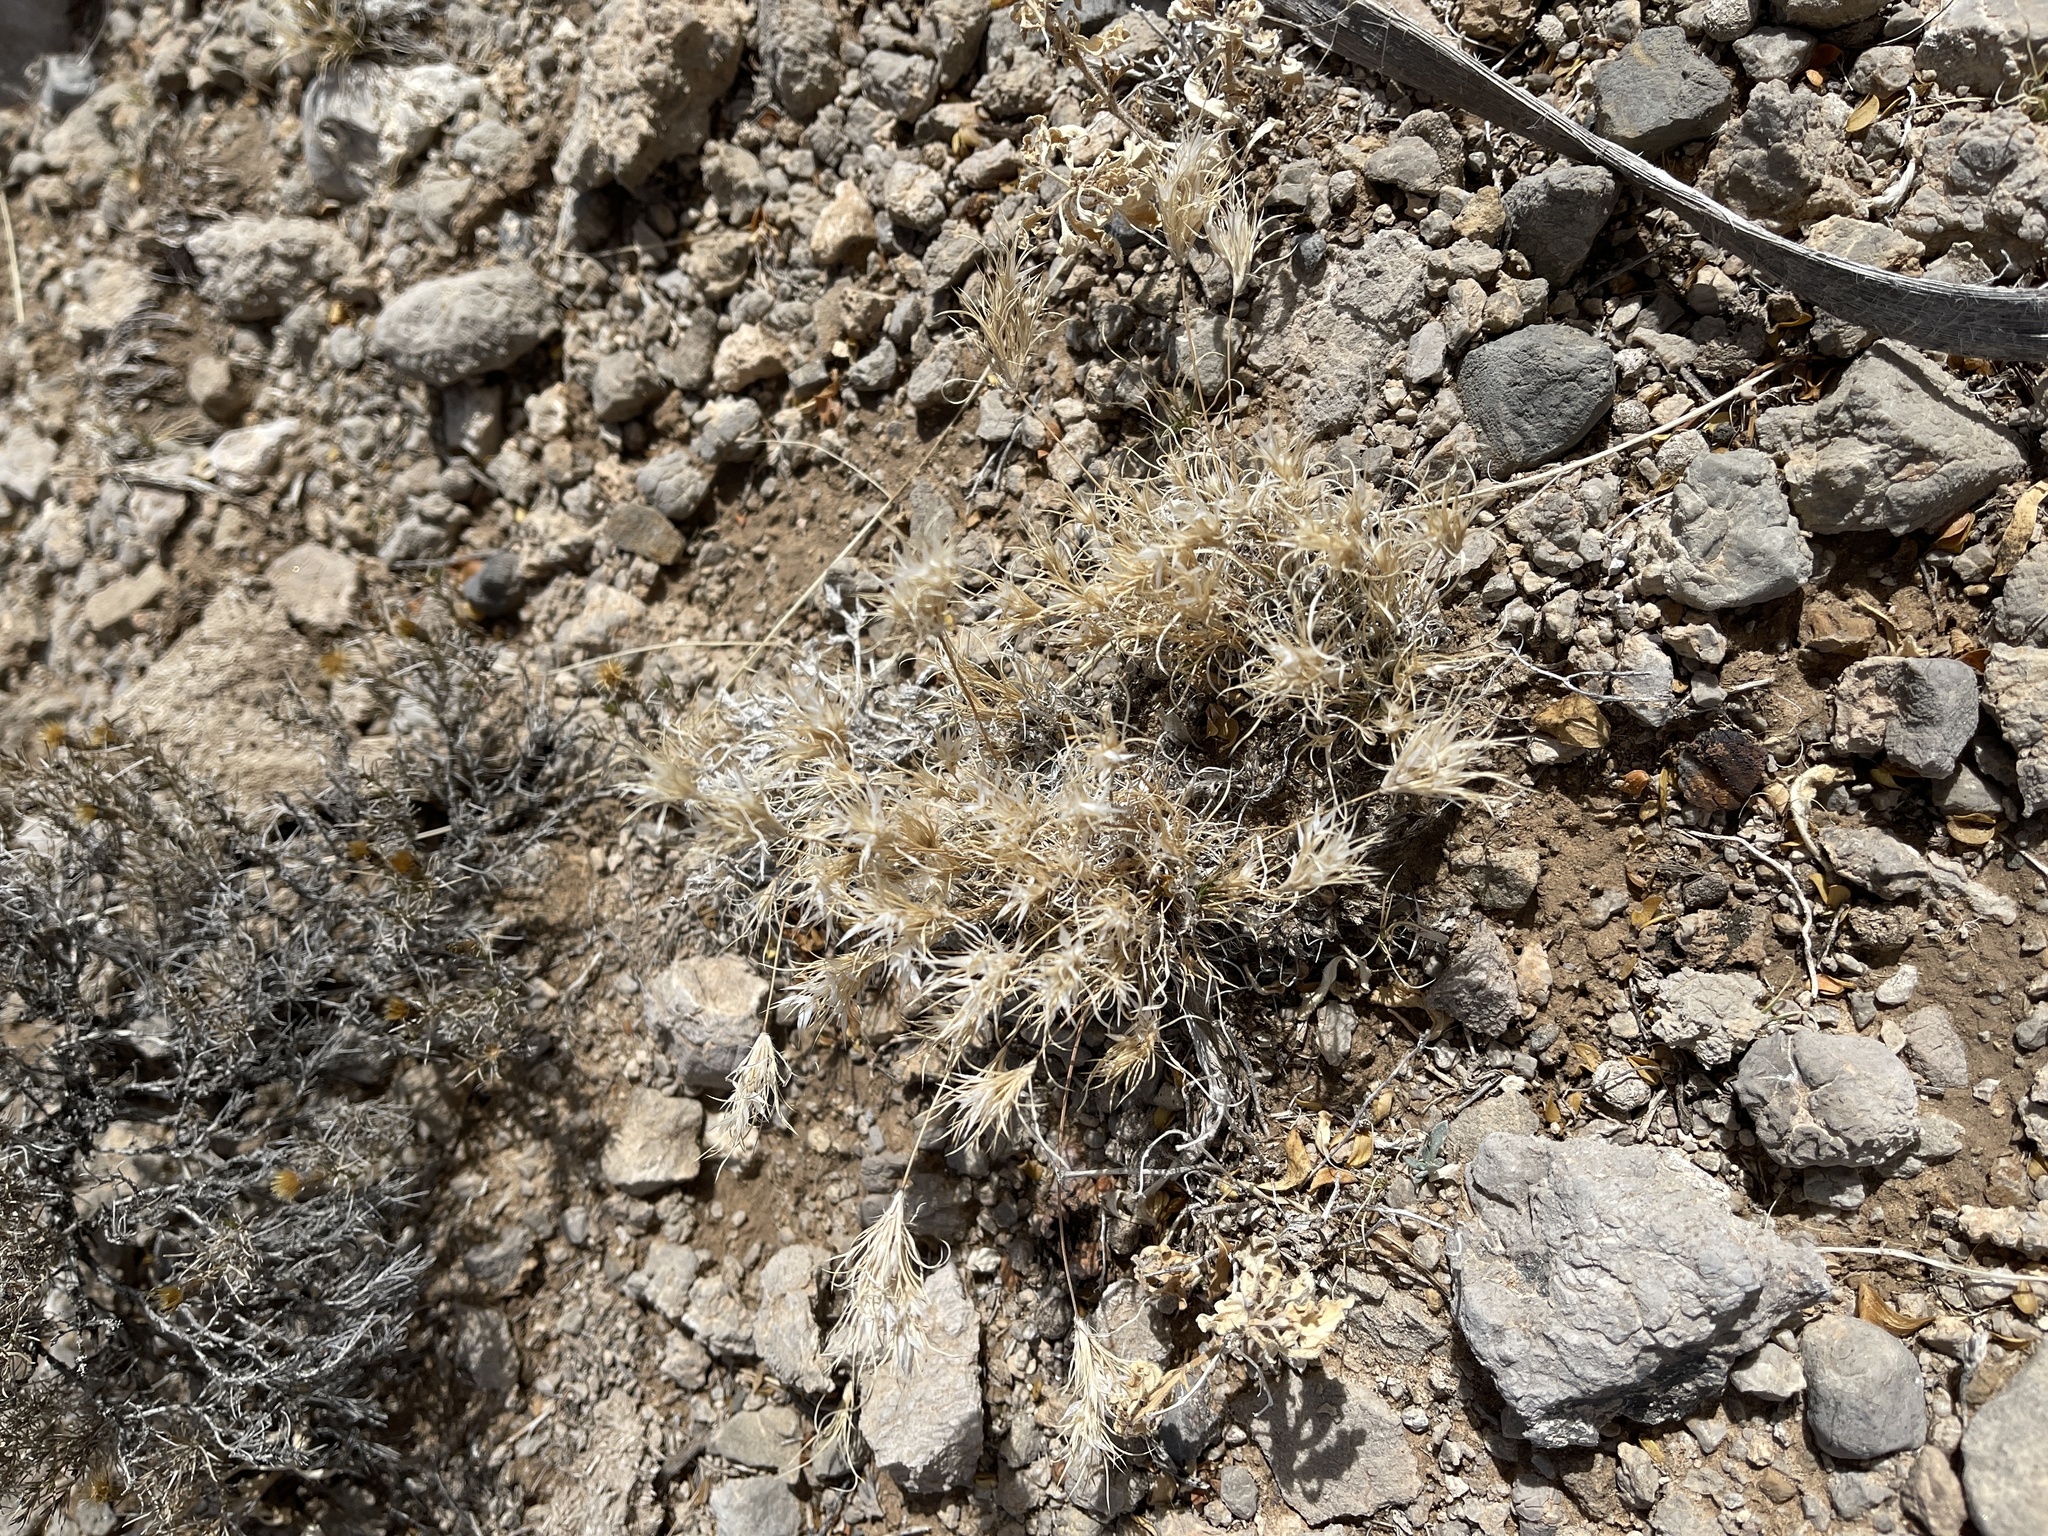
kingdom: Plantae
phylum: Tracheophyta
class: Liliopsida
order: Poales
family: Poaceae
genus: Dasyochloa
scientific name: Dasyochloa pulchella
